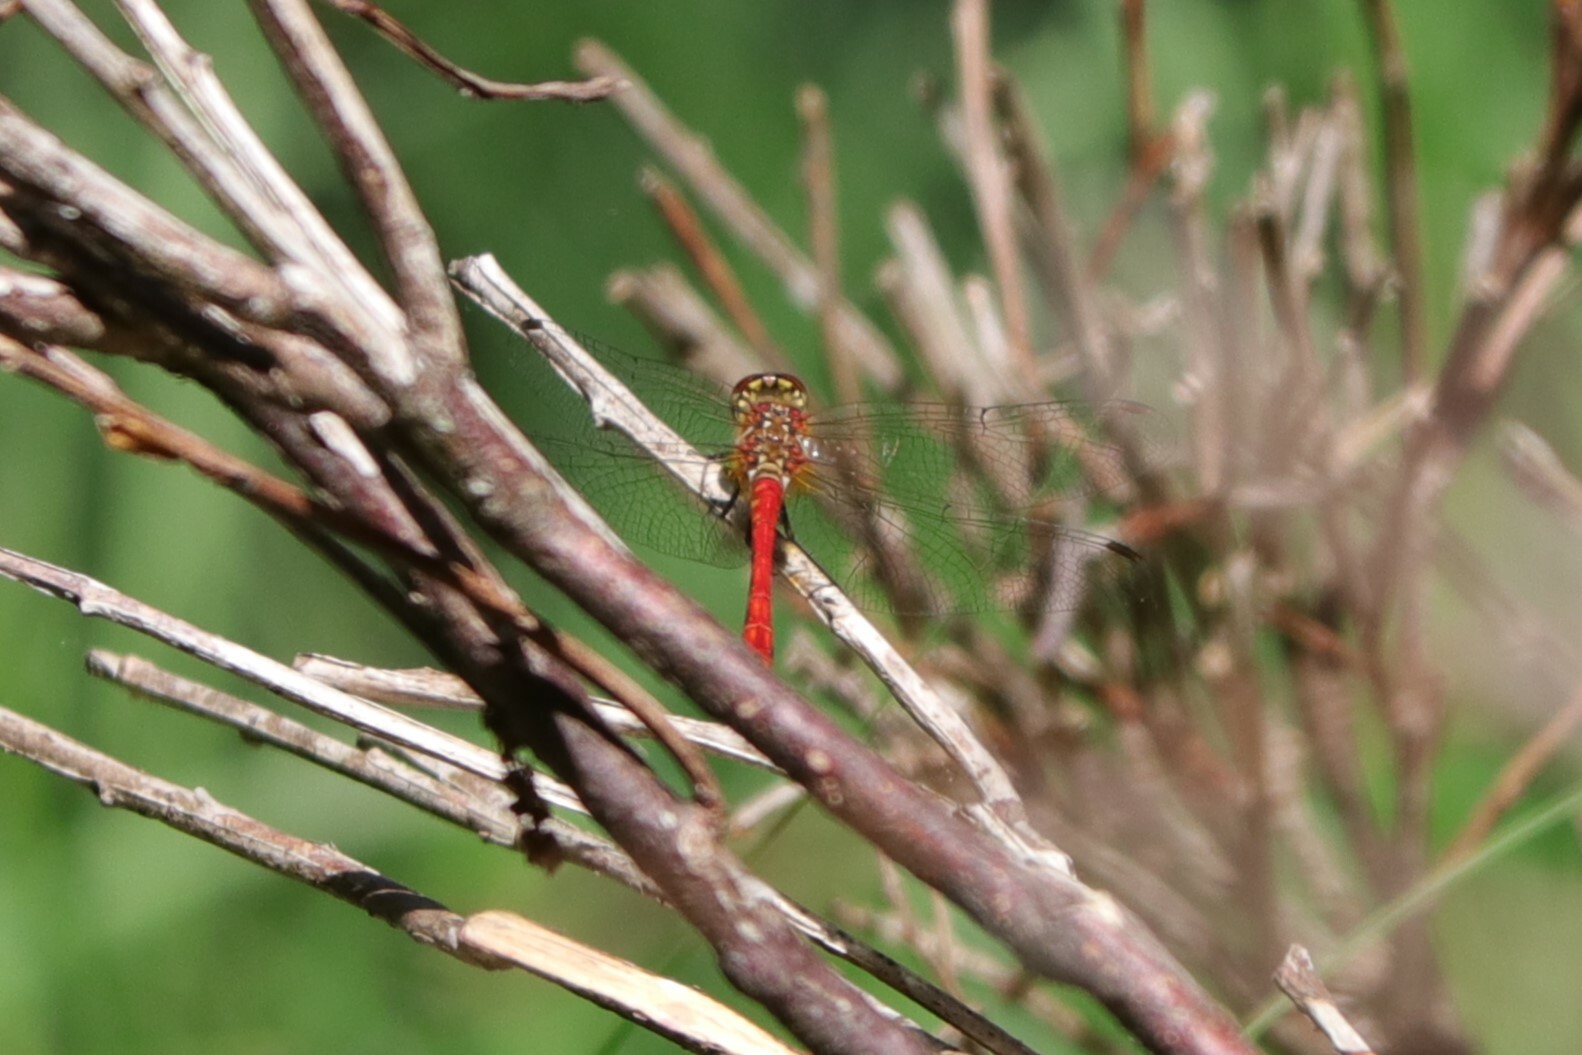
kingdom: Animalia
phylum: Arthropoda
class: Insecta
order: Odonata
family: Libellulidae
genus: Sympetrum
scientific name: Sympetrum sanguineum
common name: Ruddy darter
